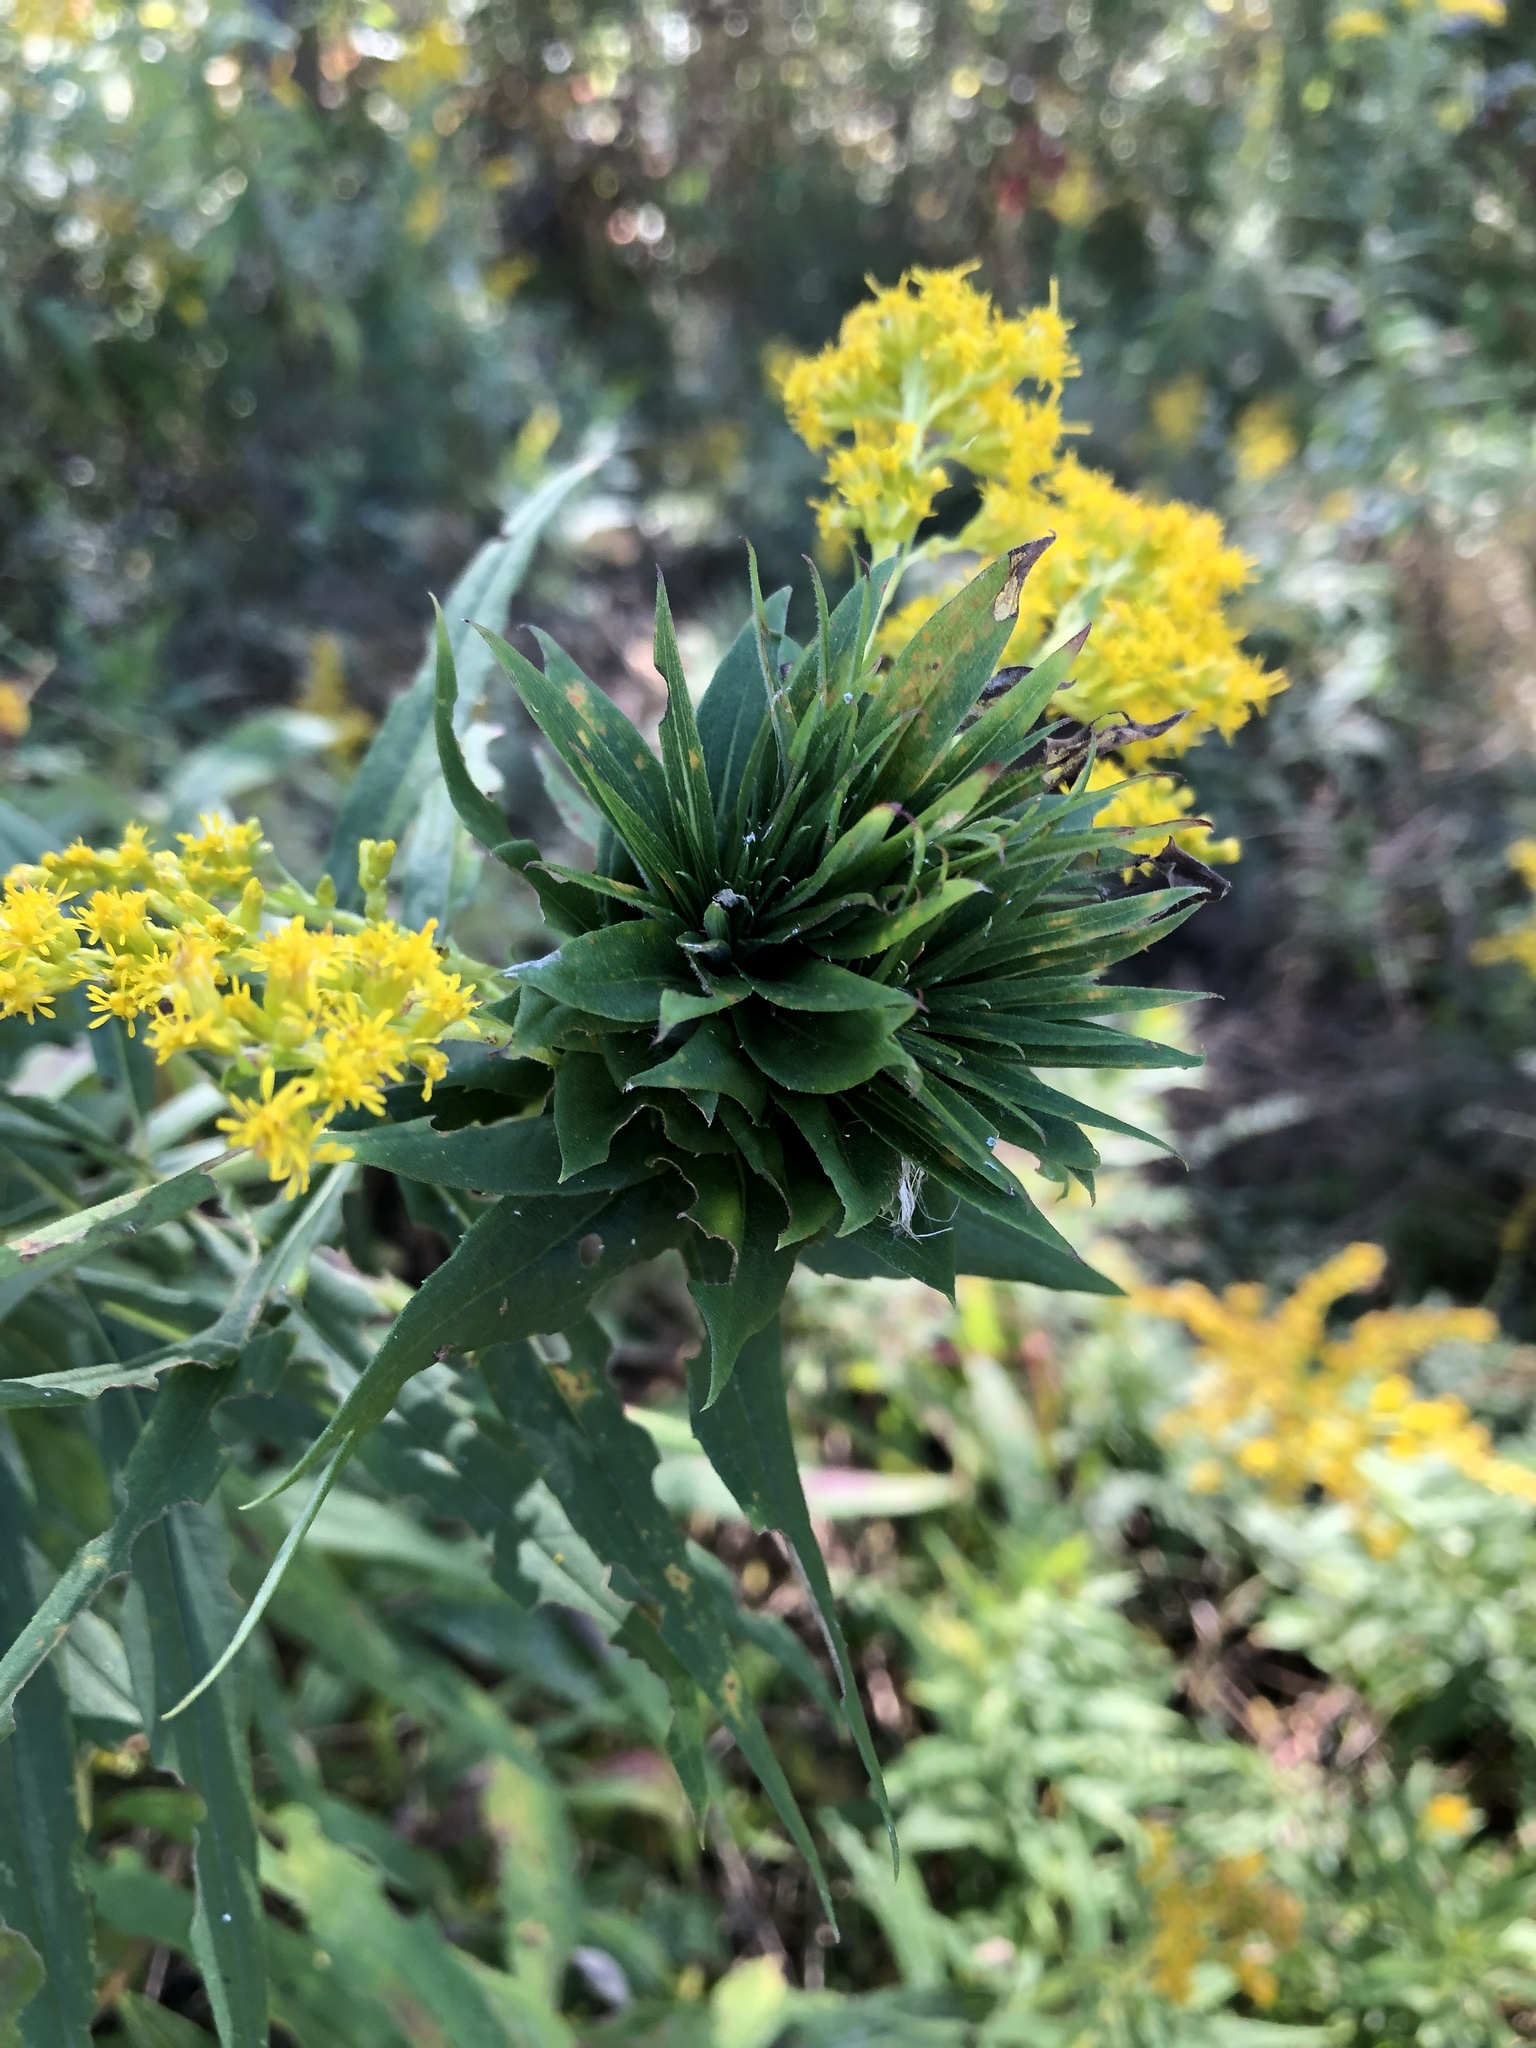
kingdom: Animalia
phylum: Arthropoda
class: Insecta
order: Diptera
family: Cecidomyiidae
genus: Rhopalomyia
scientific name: Rhopalomyia solidaginis
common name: Goldenrod bunch gall midge
